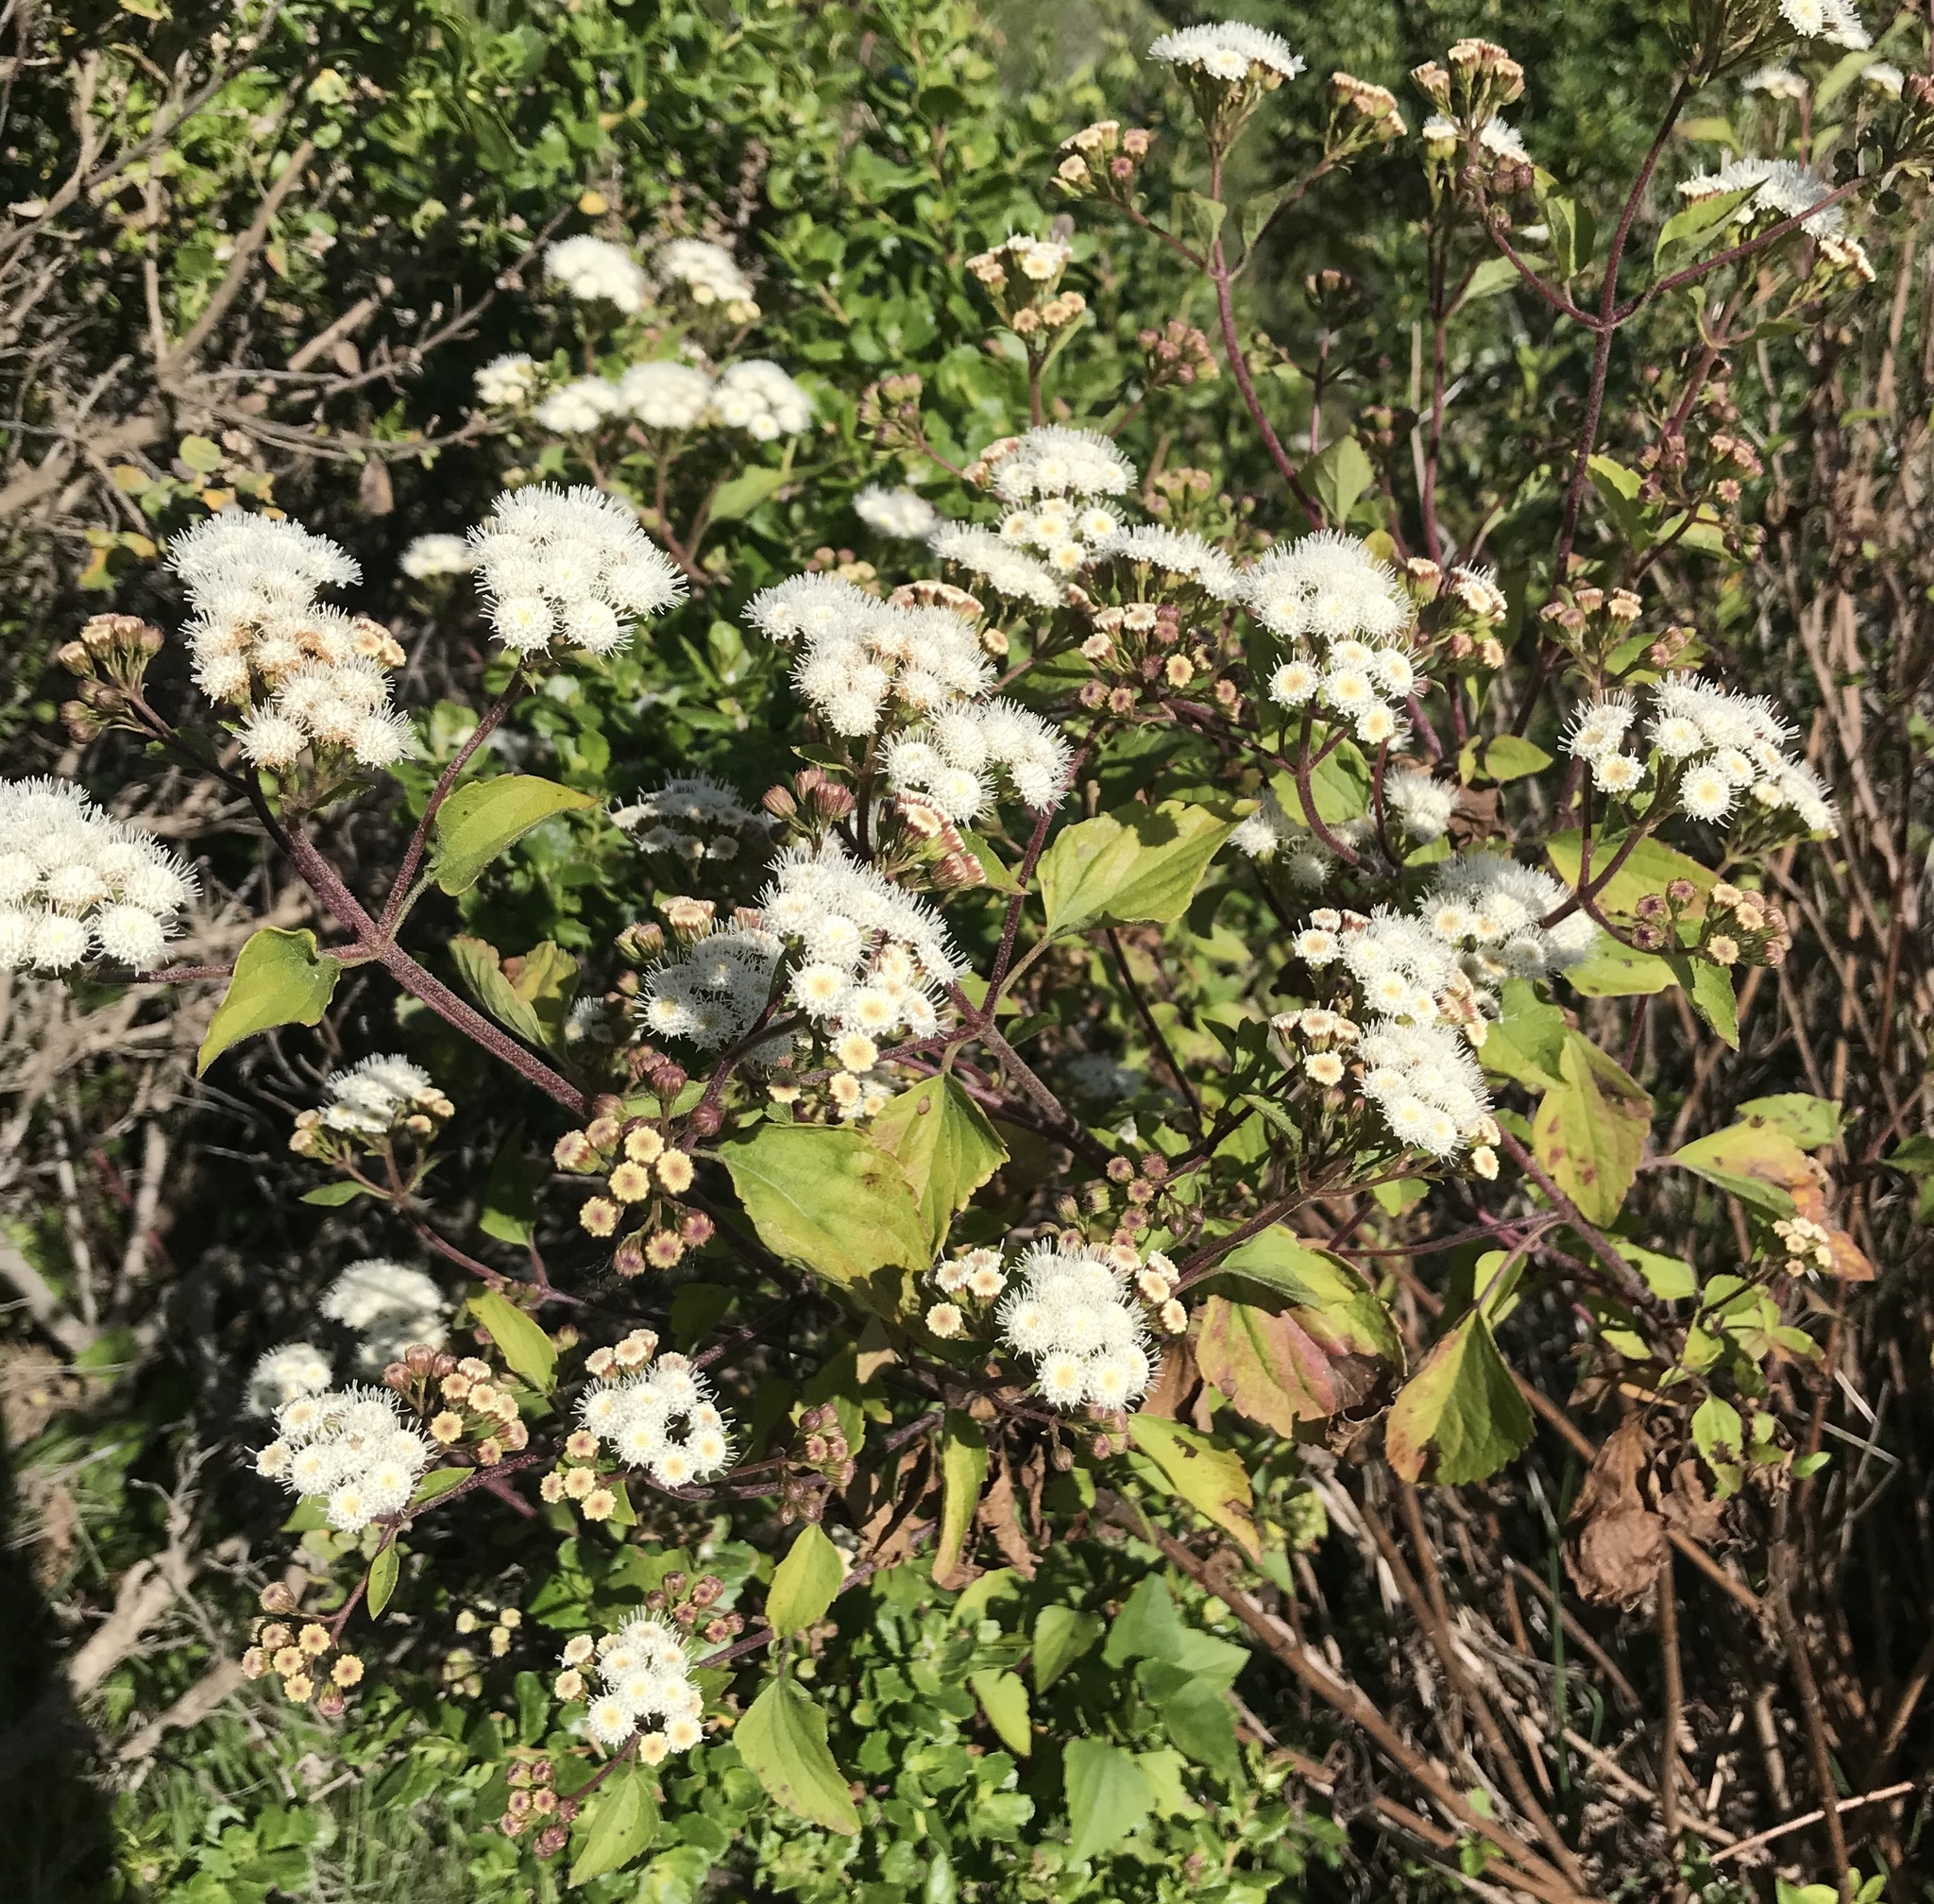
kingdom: Plantae
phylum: Tracheophyta
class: Magnoliopsida
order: Asterales
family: Asteraceae
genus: Ageratina
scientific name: Ageratina adenophora
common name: Sticky snakeroot
